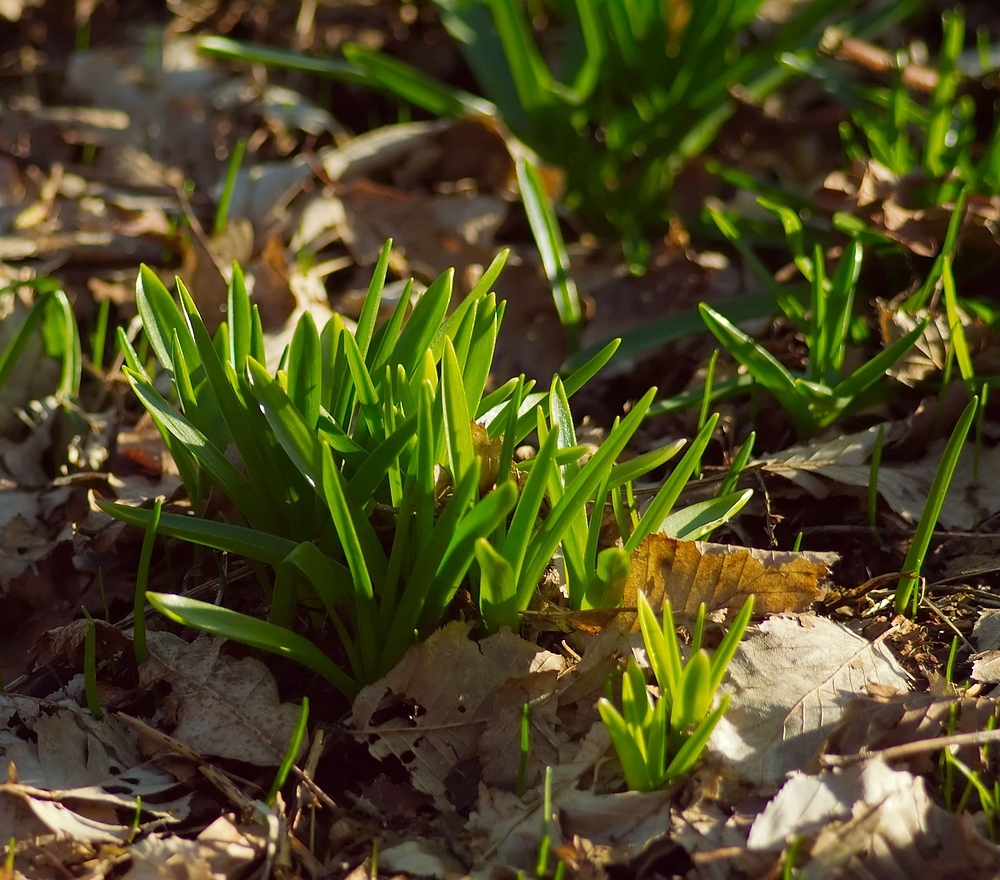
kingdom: Plantae
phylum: Tracheophyta
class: Liliopsida
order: Asparagales
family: Asparagaceae
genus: Hyacinthoides
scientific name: Hyacinthoides non-scripta
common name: Bluebell
